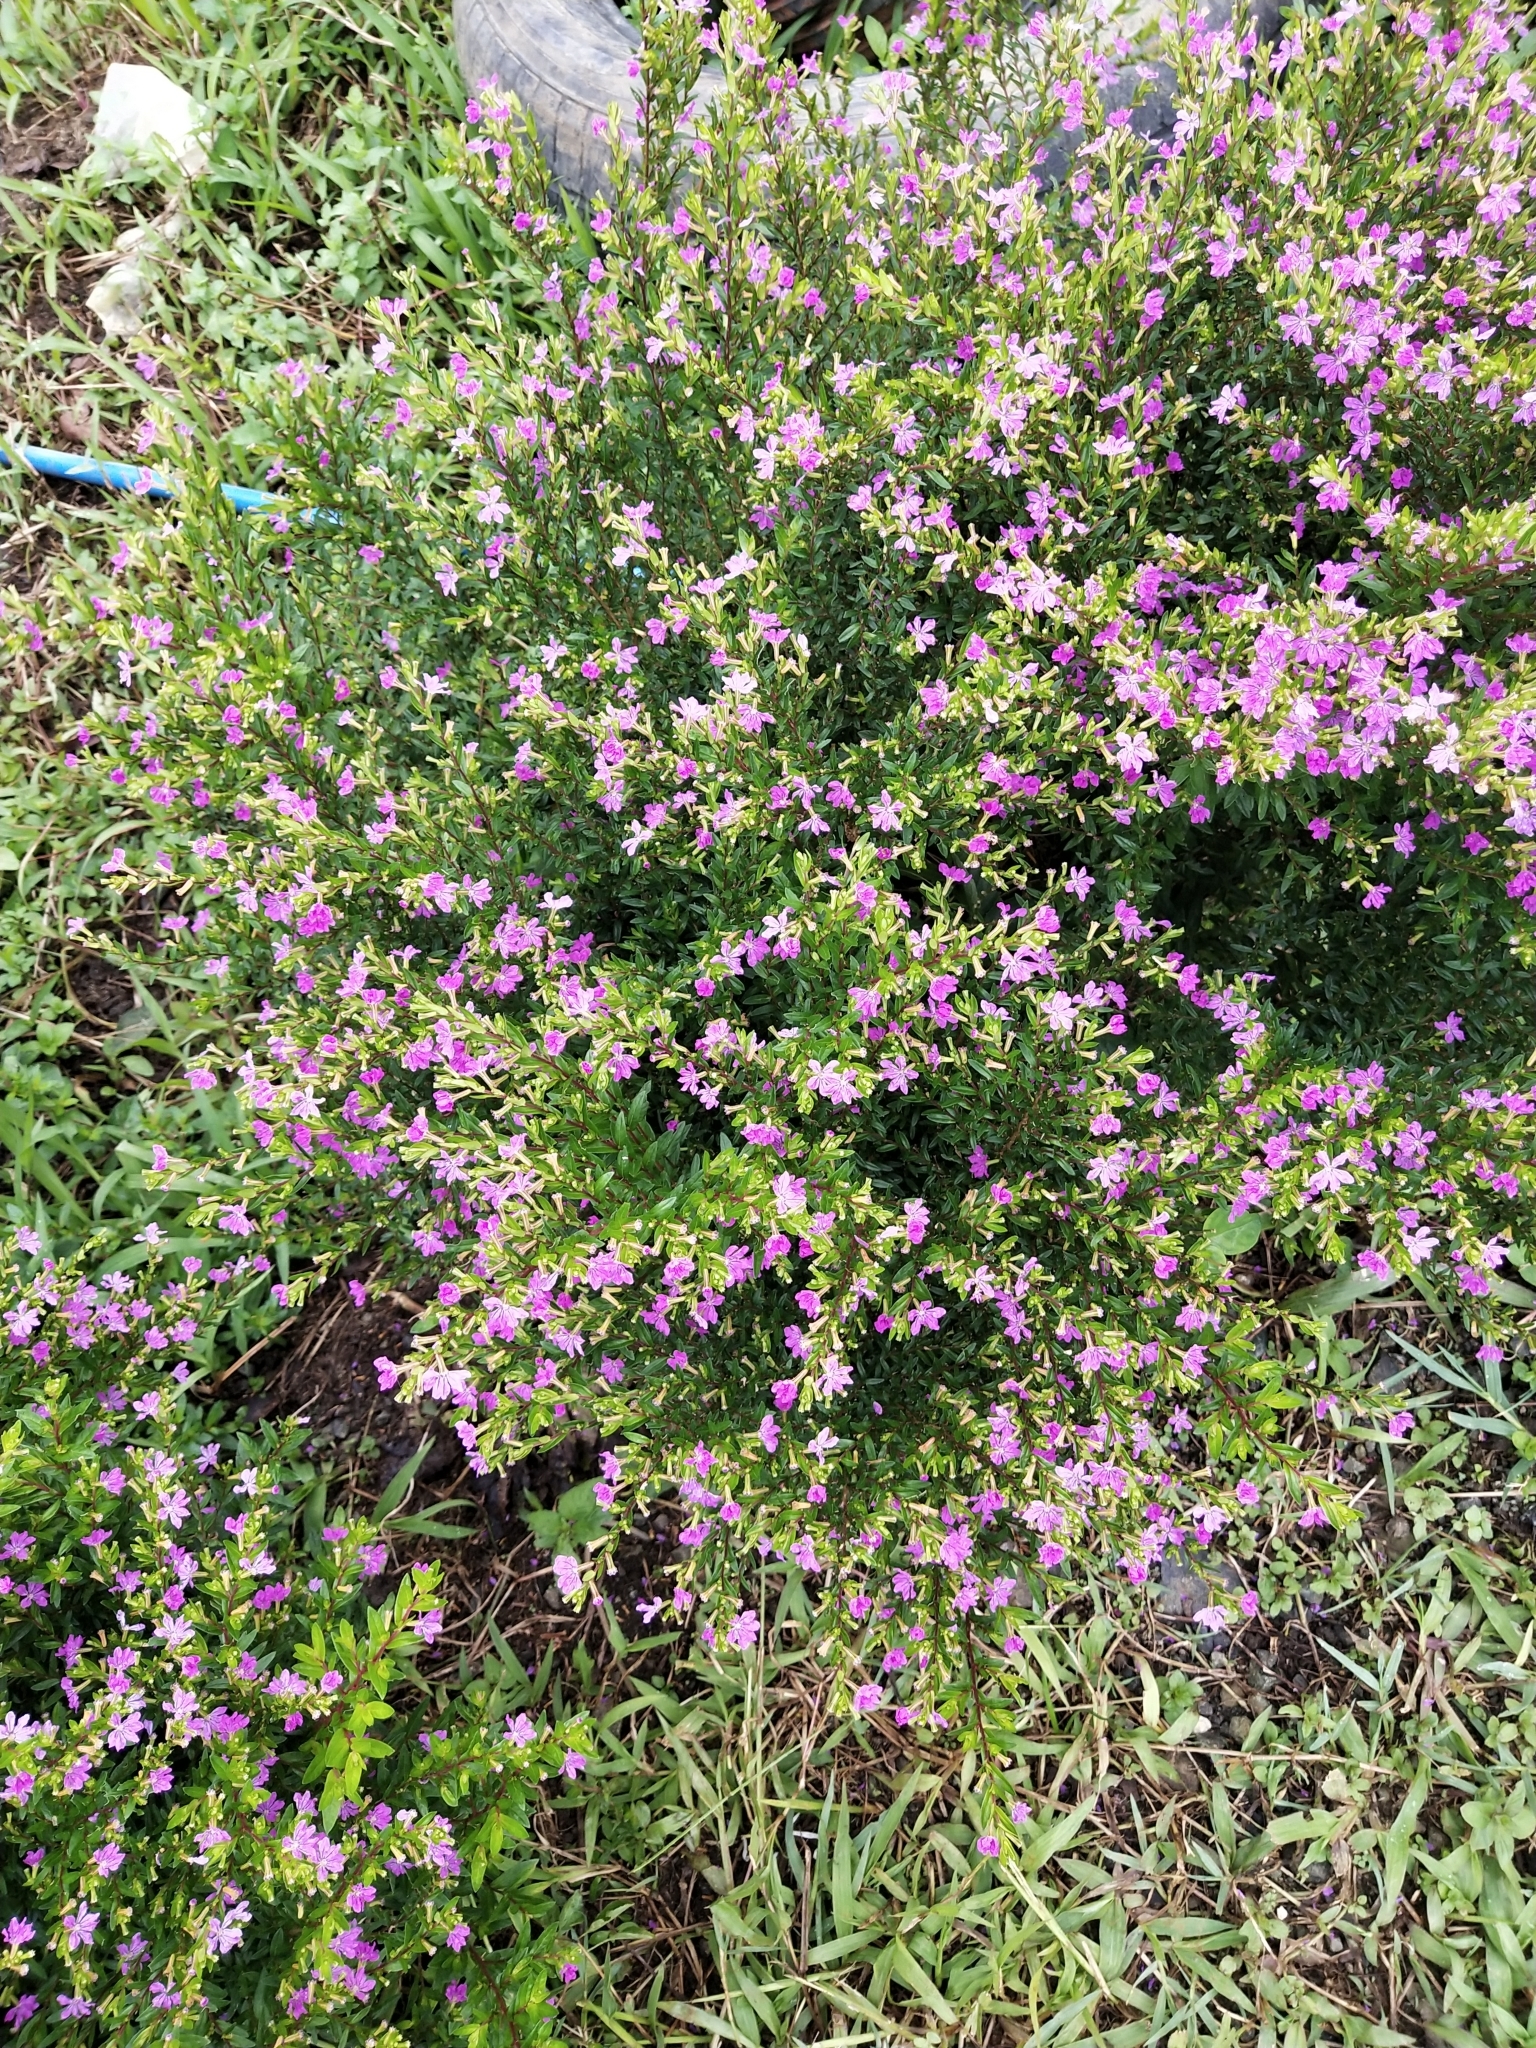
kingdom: Plantae
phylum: Tracheophyta
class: Magnoliopsida
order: Myrtales
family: Lythraceae
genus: Cuphea
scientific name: Cuphea hyssopifolia
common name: False heather
